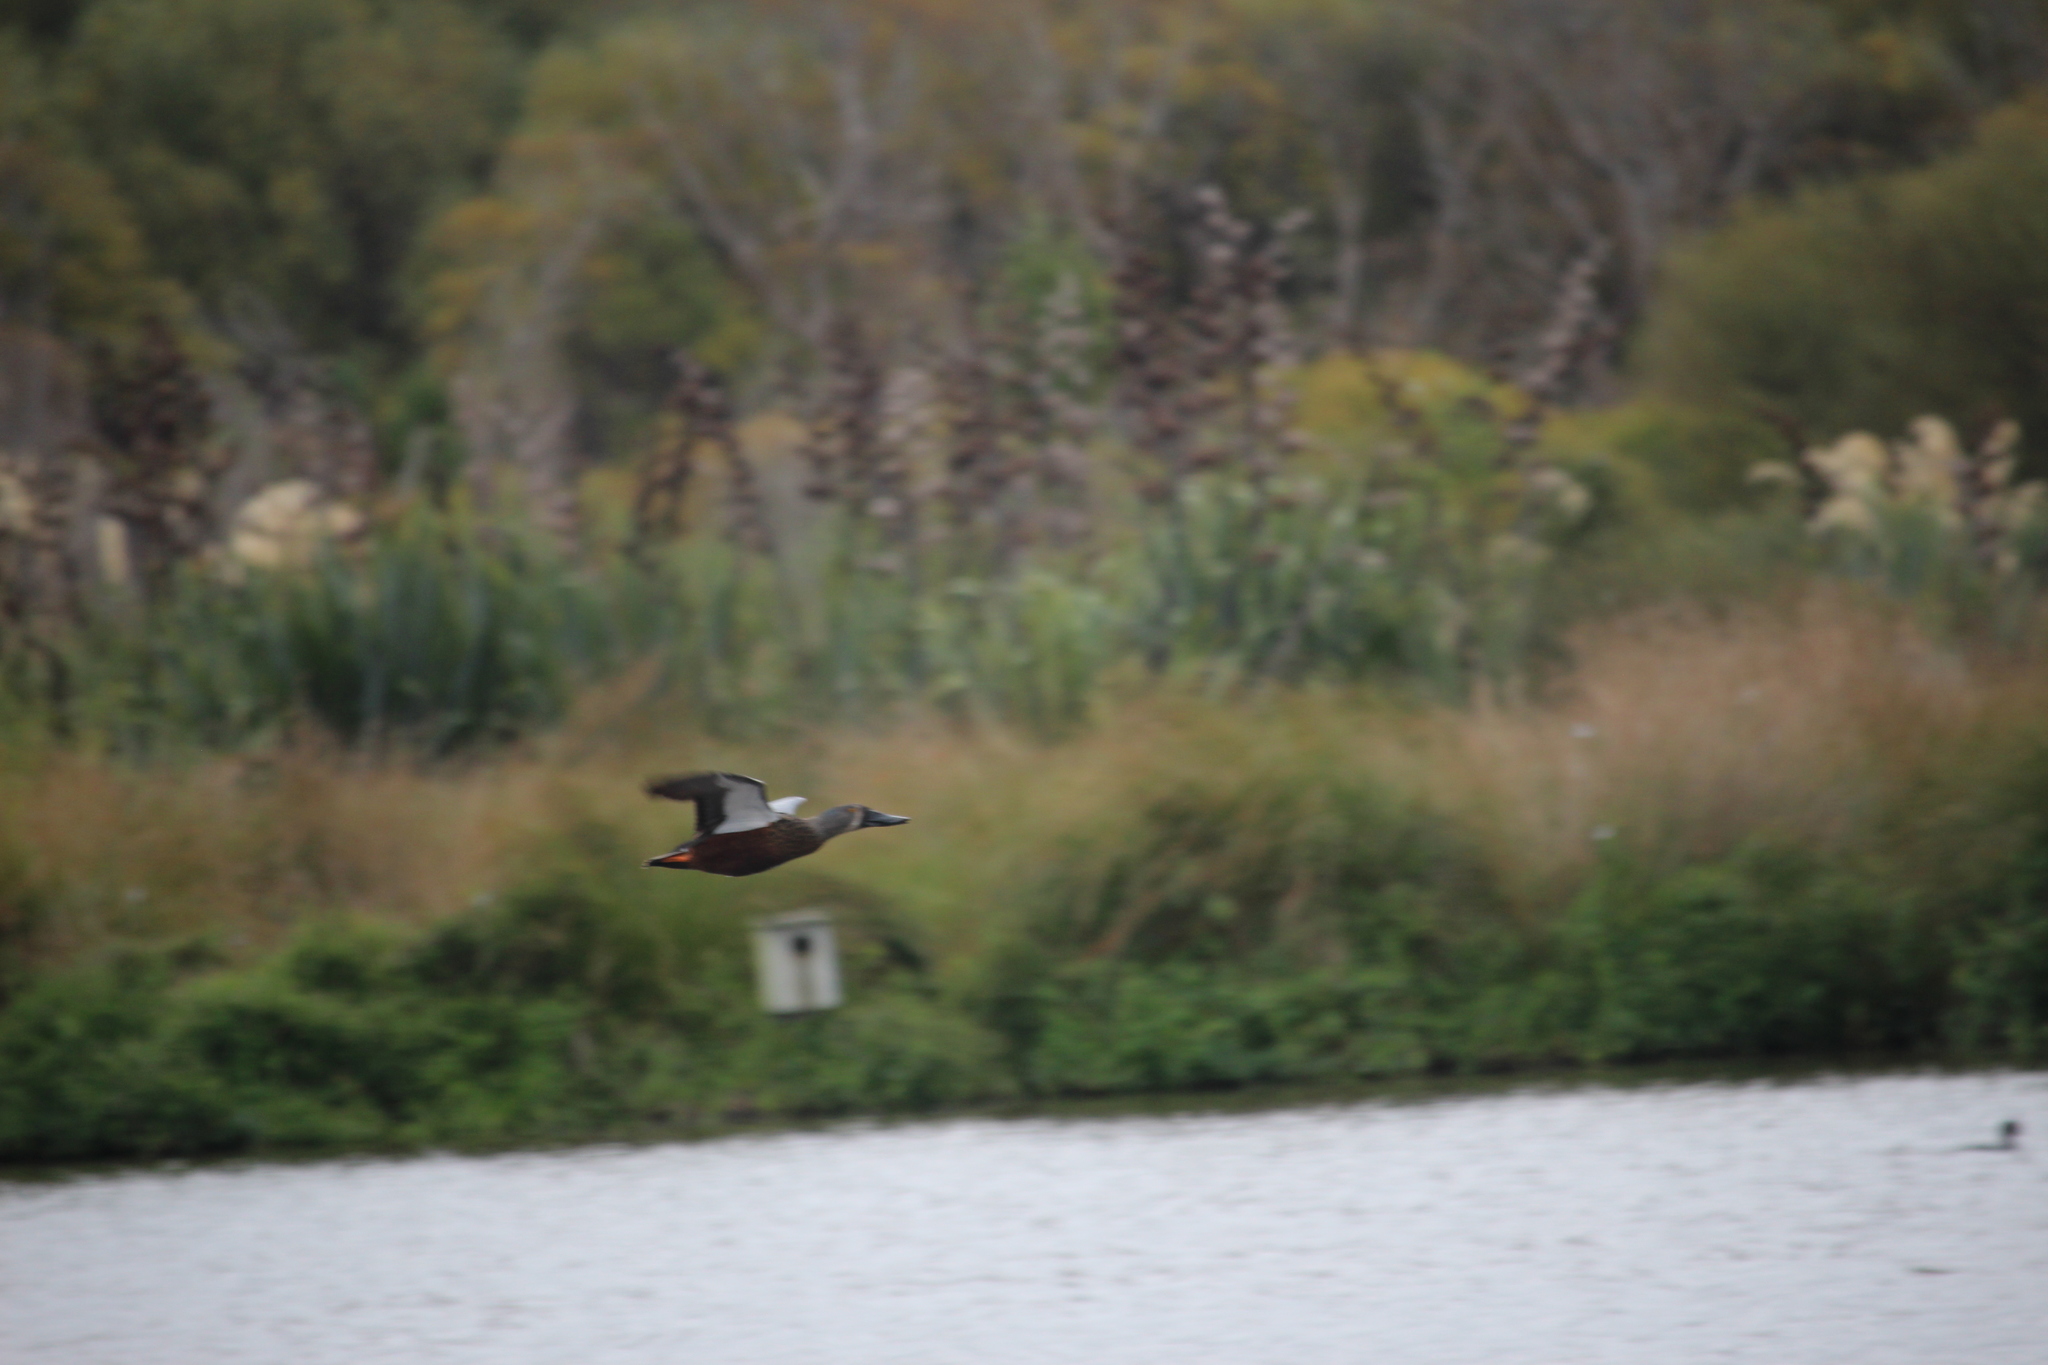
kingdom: Animalia
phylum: Chordata
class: Aves
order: Anseriformes
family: Anatidae
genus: Spatula
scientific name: Spatula rhynchotis
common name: Australian shoveler
